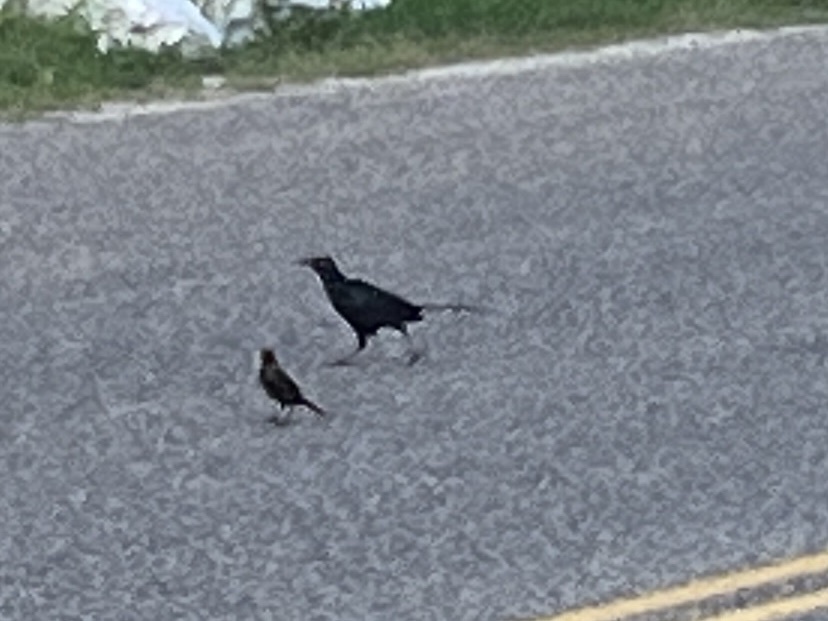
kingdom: Animalia
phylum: Chordata
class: Aves
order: Passeriformes
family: Icteridae
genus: Quiscalus
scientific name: Quiscalus mexicanus
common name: Great-tailed grackle
